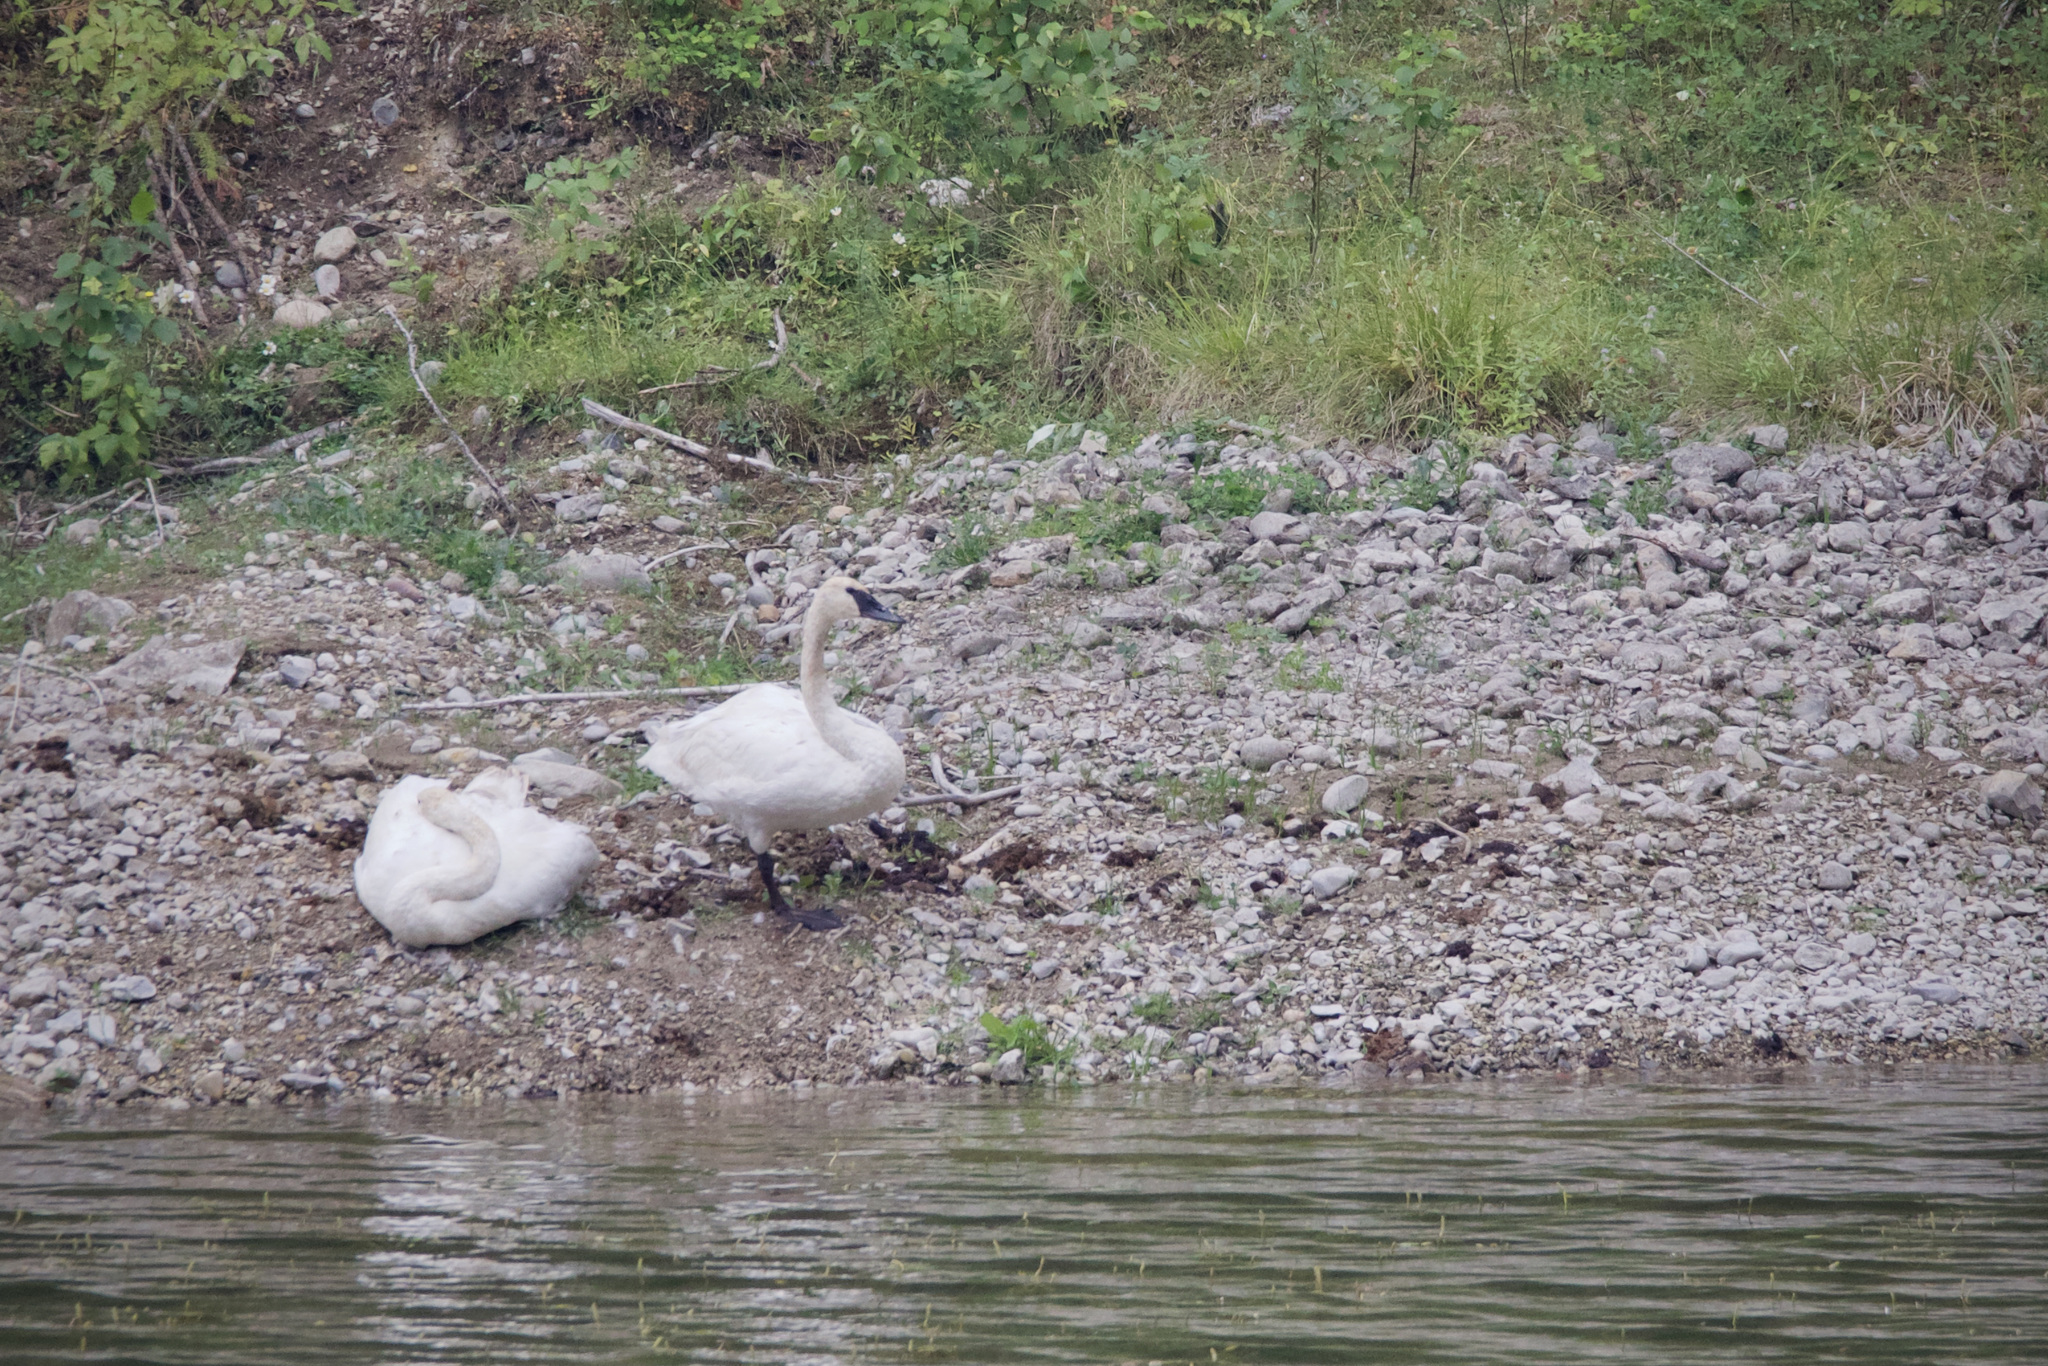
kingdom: Animalia
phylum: Chordata
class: Aves
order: Anseriformes
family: Anatidae
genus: Cygnus
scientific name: Cygnus buccinator
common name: Trumpeter swan
